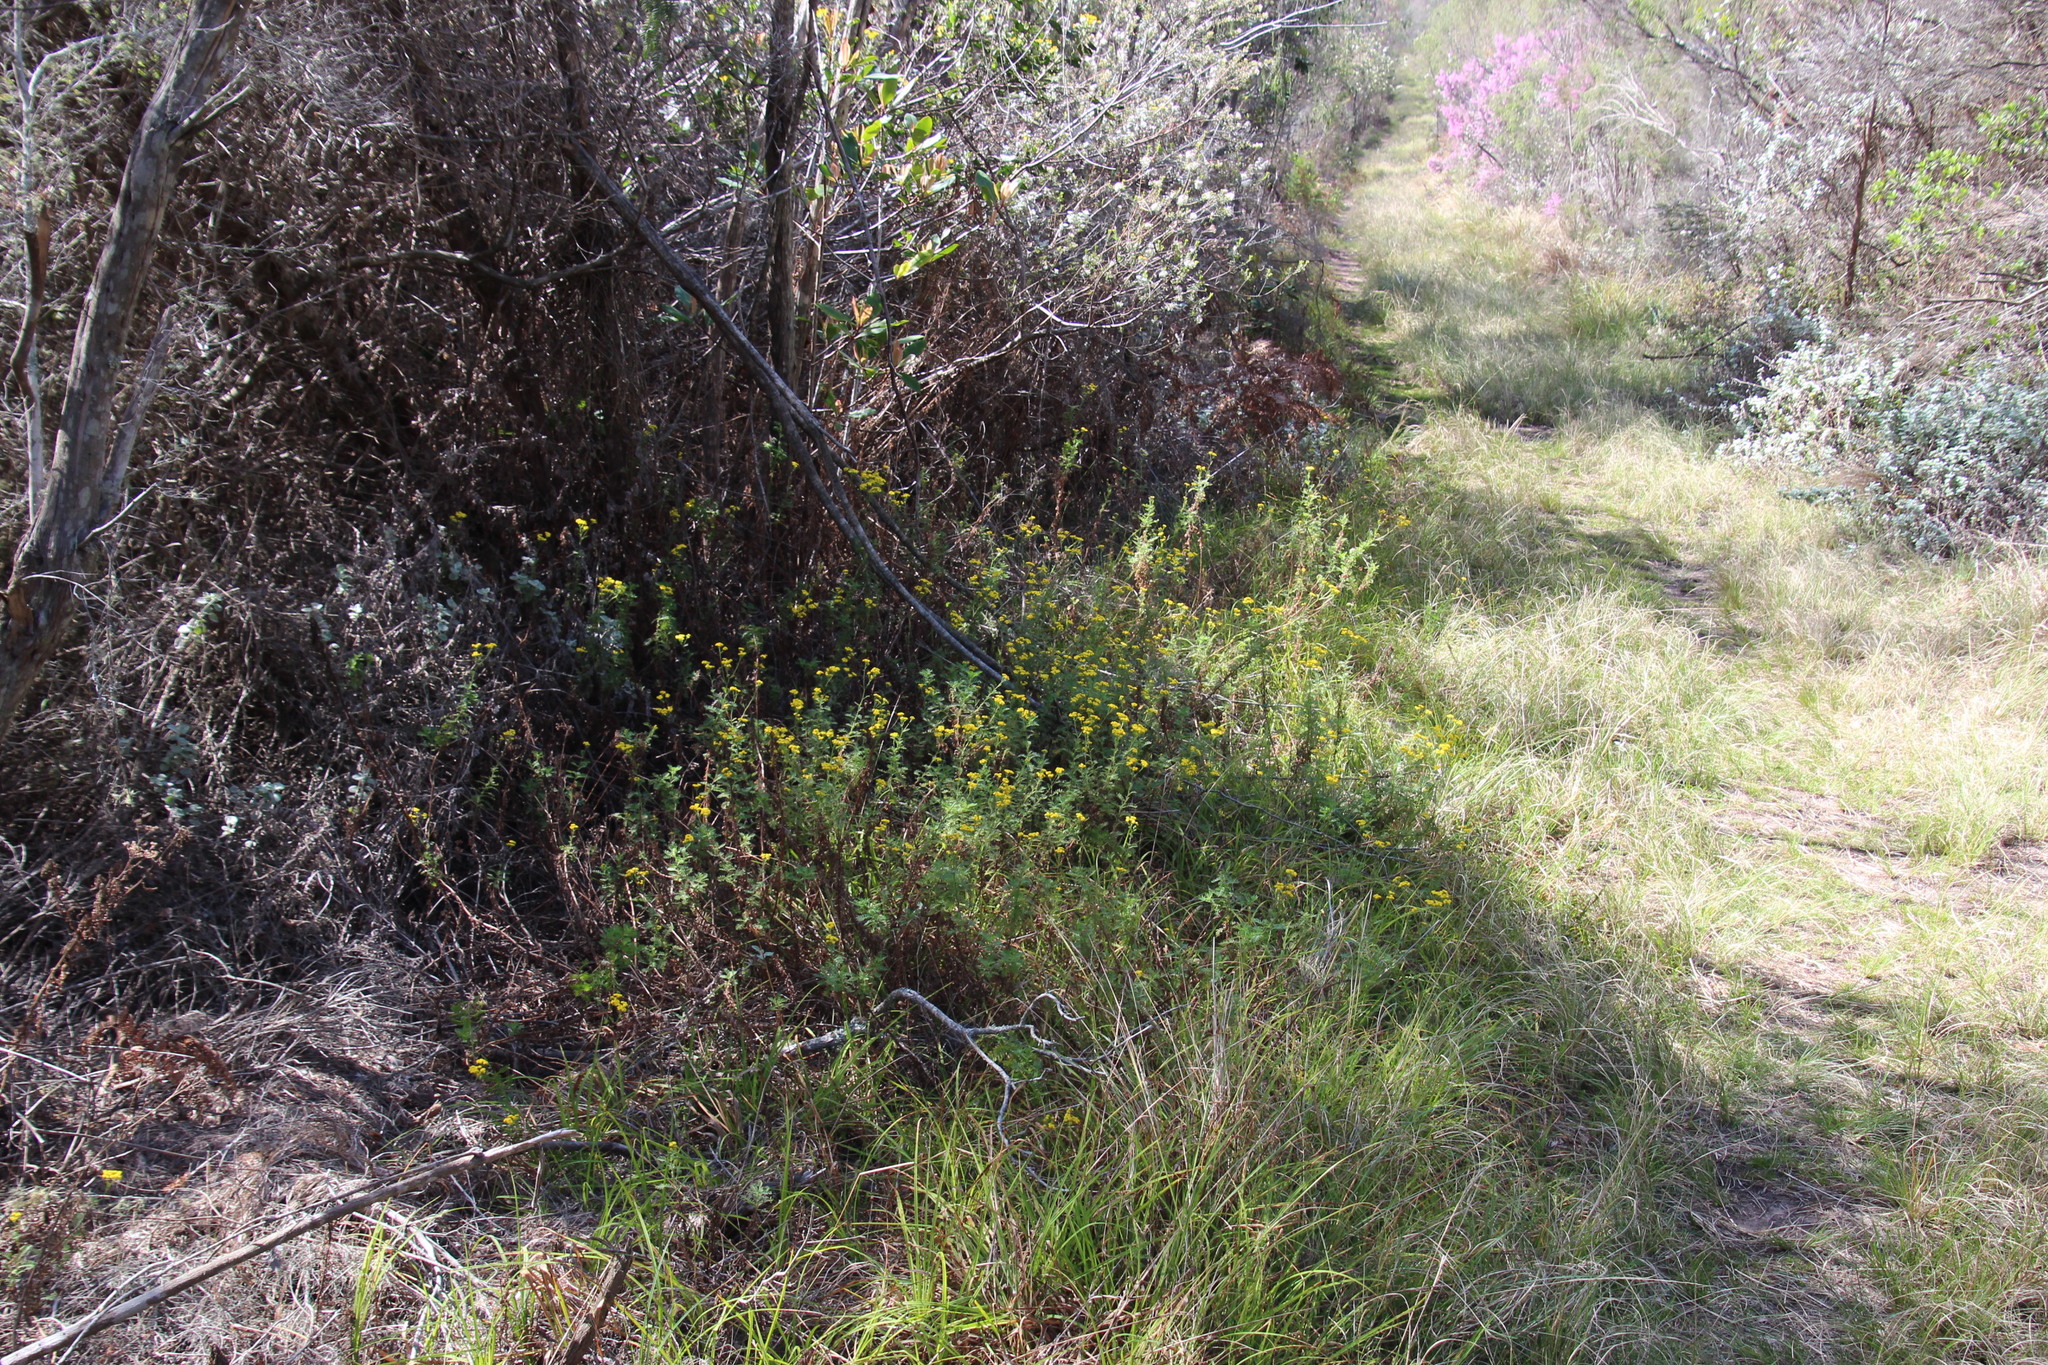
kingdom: Plantae
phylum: Tracheophyta
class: Magnoliopsida
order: Asterales
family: Asteraceae
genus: Hippia
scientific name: Hippia frutescens
